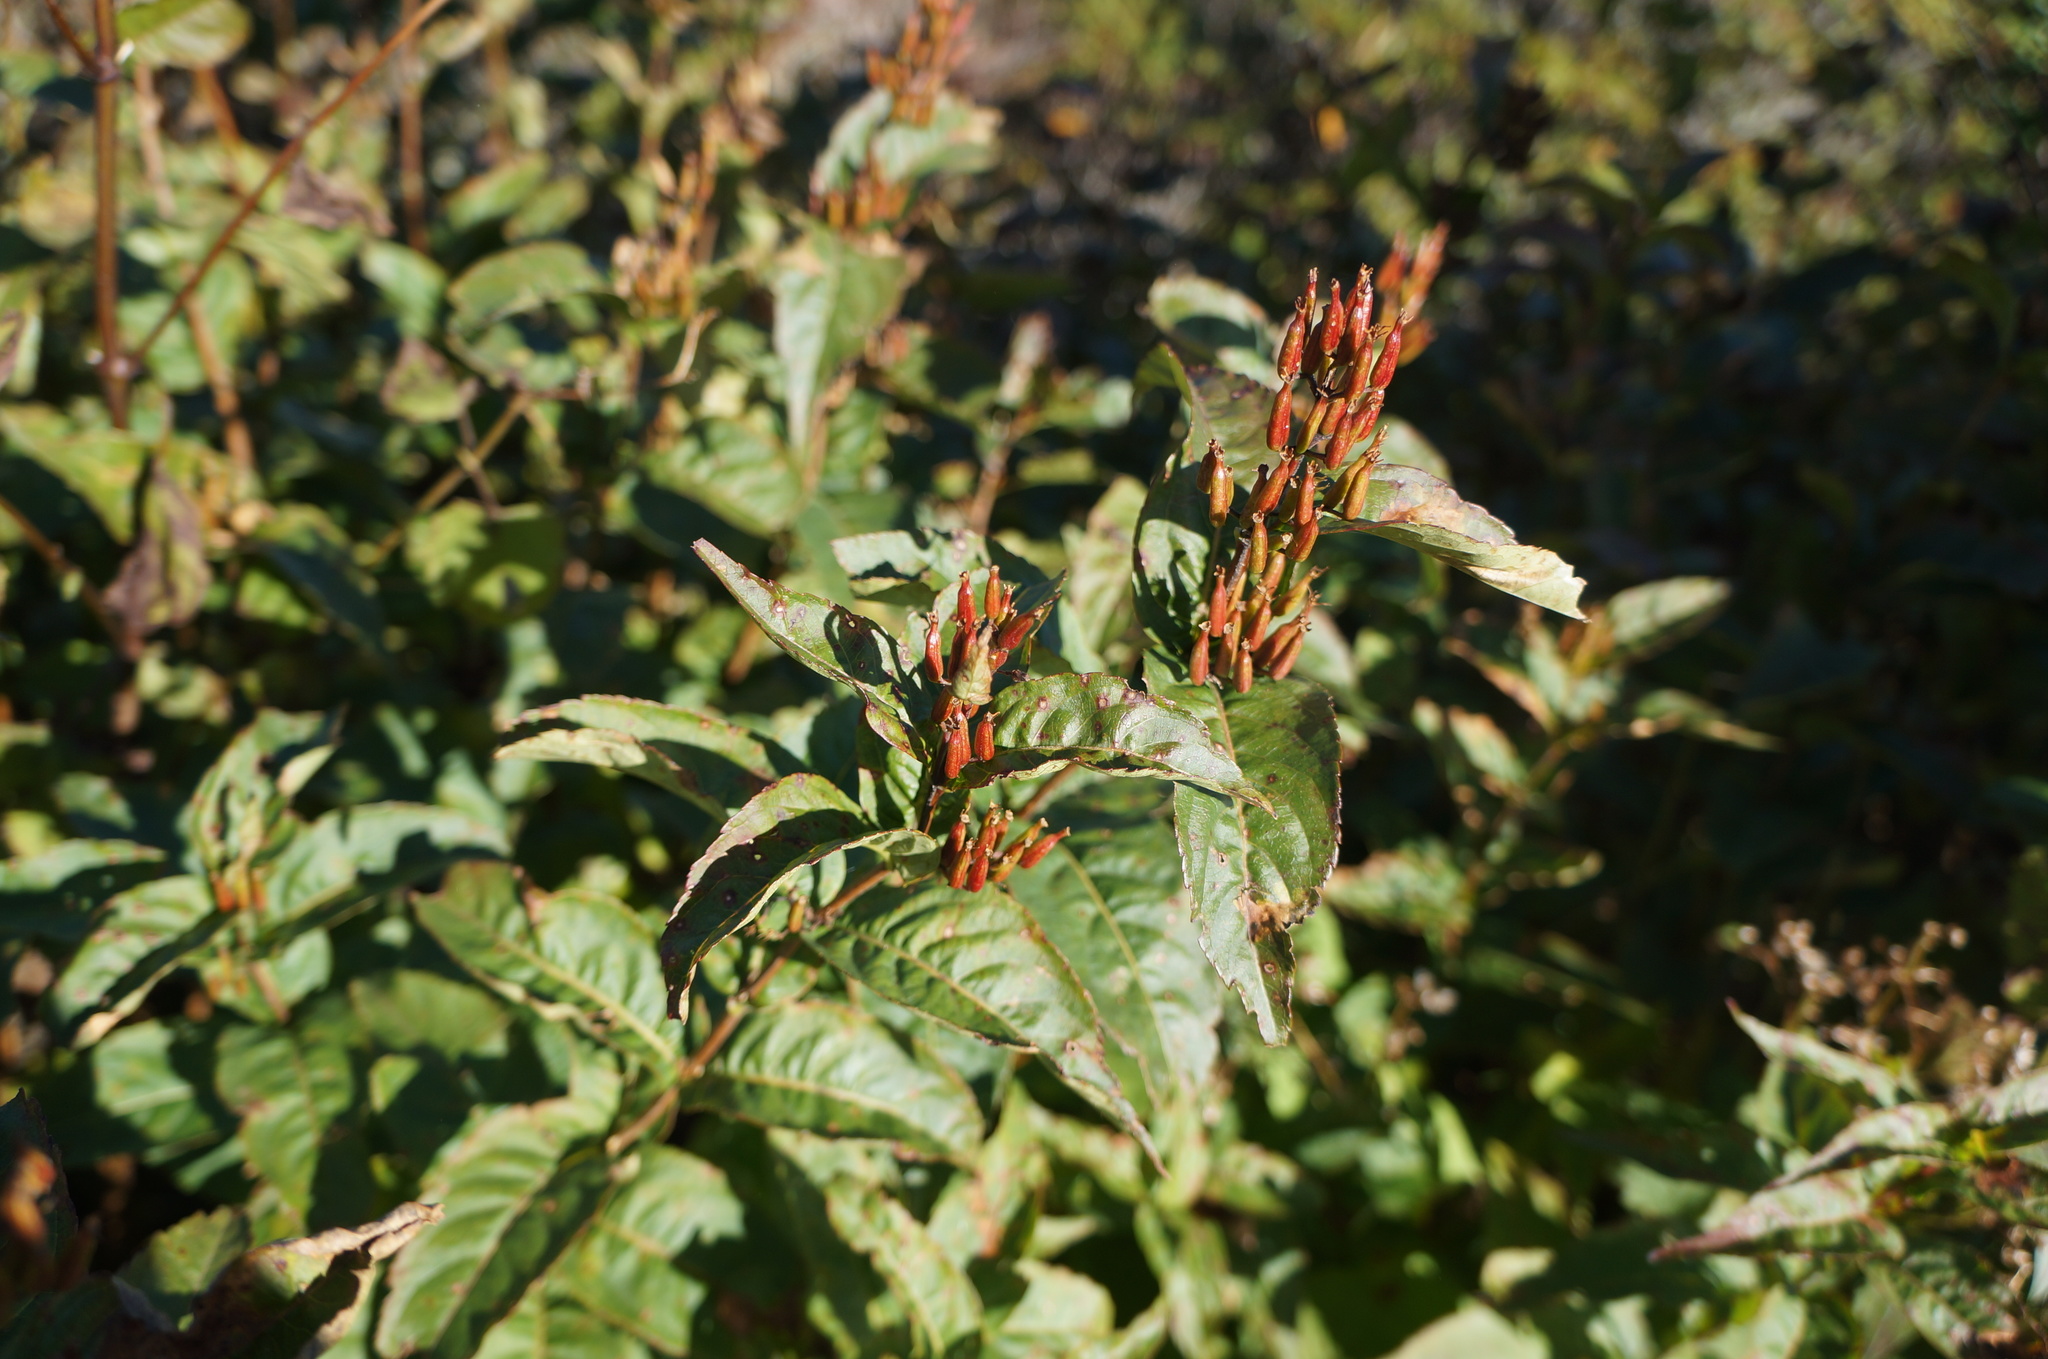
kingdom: Plantae
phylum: Tracheophyta
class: Magnoliopsida
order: Dipsacales
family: Caprifoliaceae
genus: Diervilla
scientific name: Diervilla sessilifolia
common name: Bush-honeysuckle
